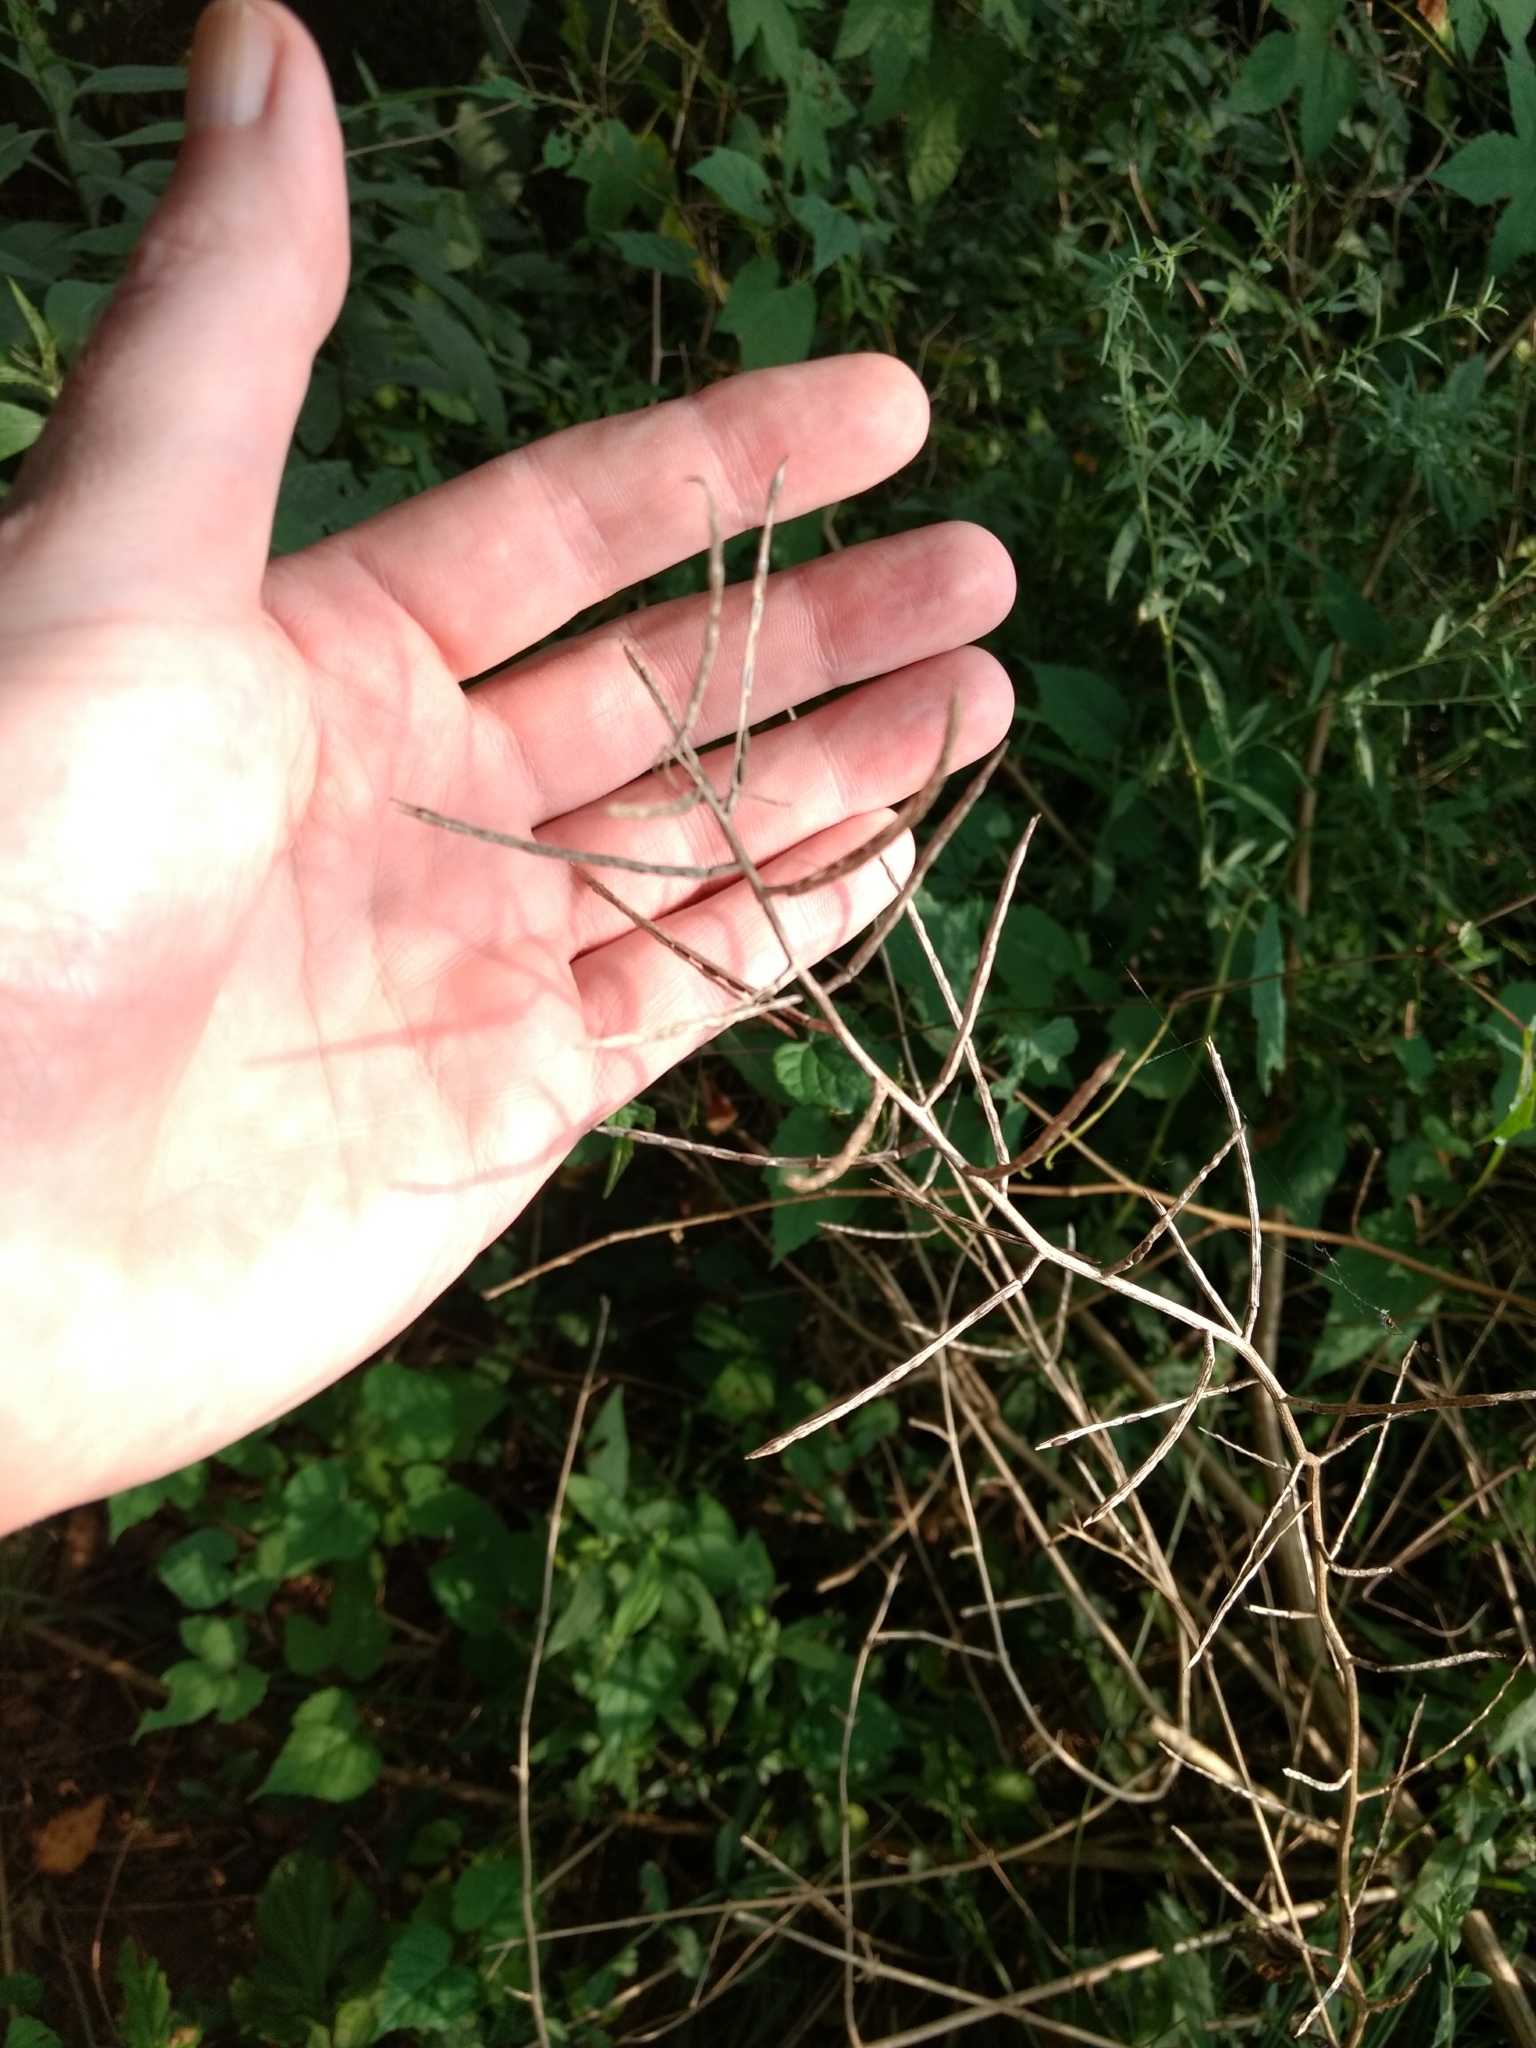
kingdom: Plantae
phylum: Tracheophyta
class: Magnoliopsida
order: Brassicales
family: Brassicaceae
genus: Alliaria
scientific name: Alliaria petiolata
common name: Garlic mustard
